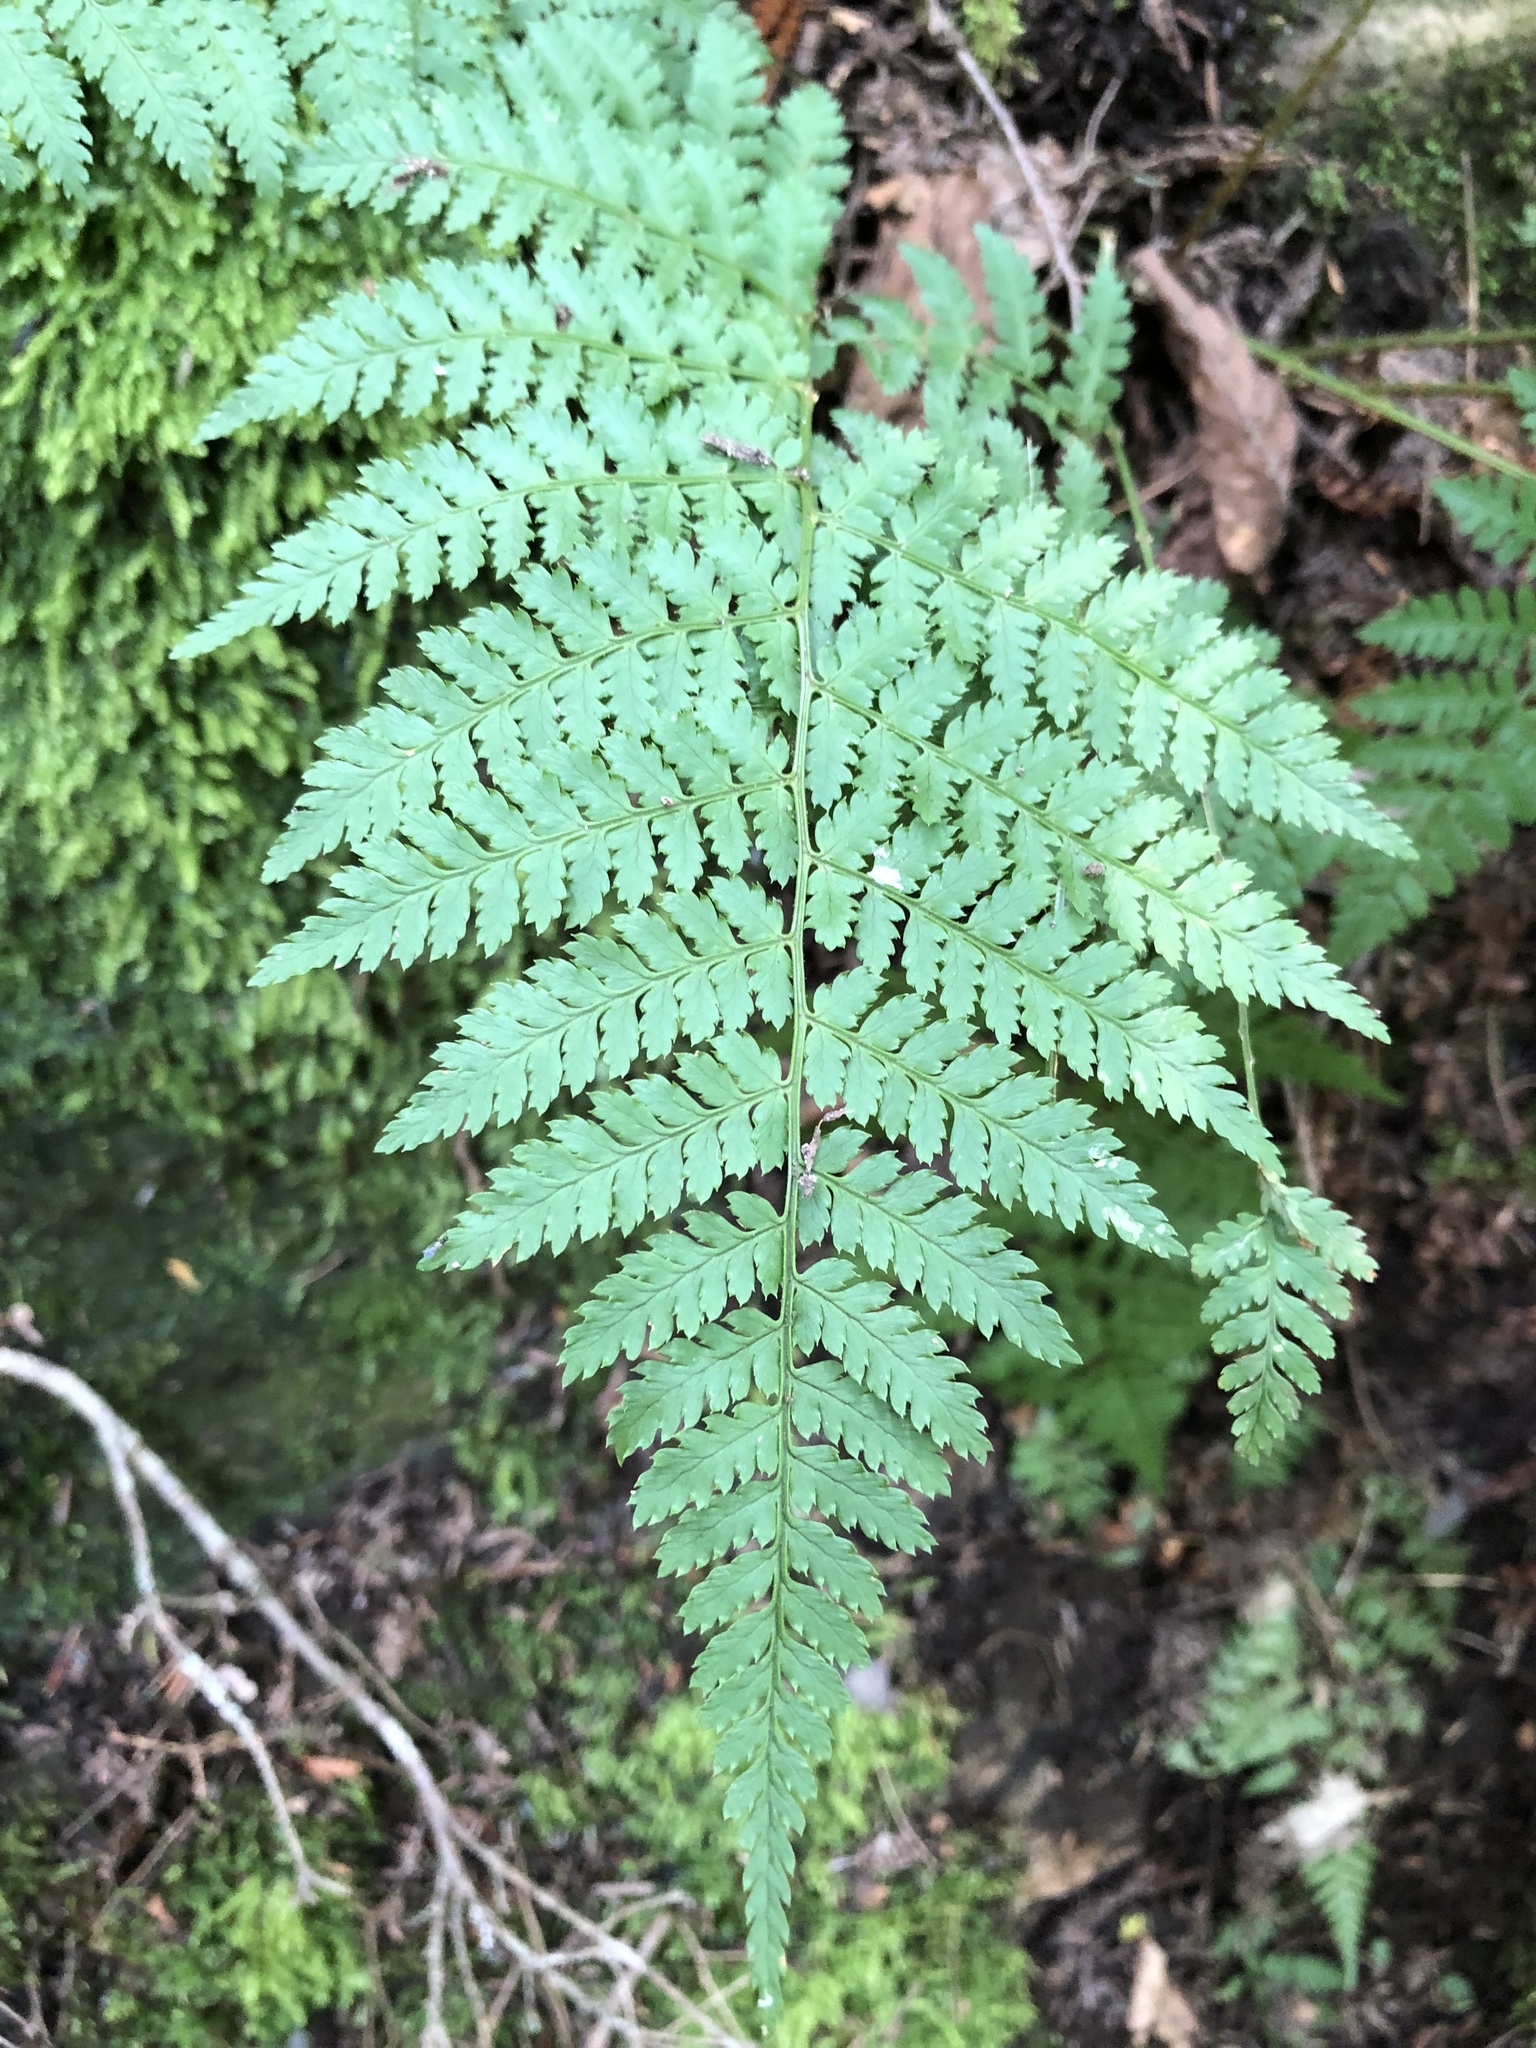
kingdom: Plantae
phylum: Tracheophyta
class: Polypodiopsida
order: Polypodiales
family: Dryopteridaceae
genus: Dryopteris
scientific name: Dryopteris intermedia
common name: Evergreen wood fern
